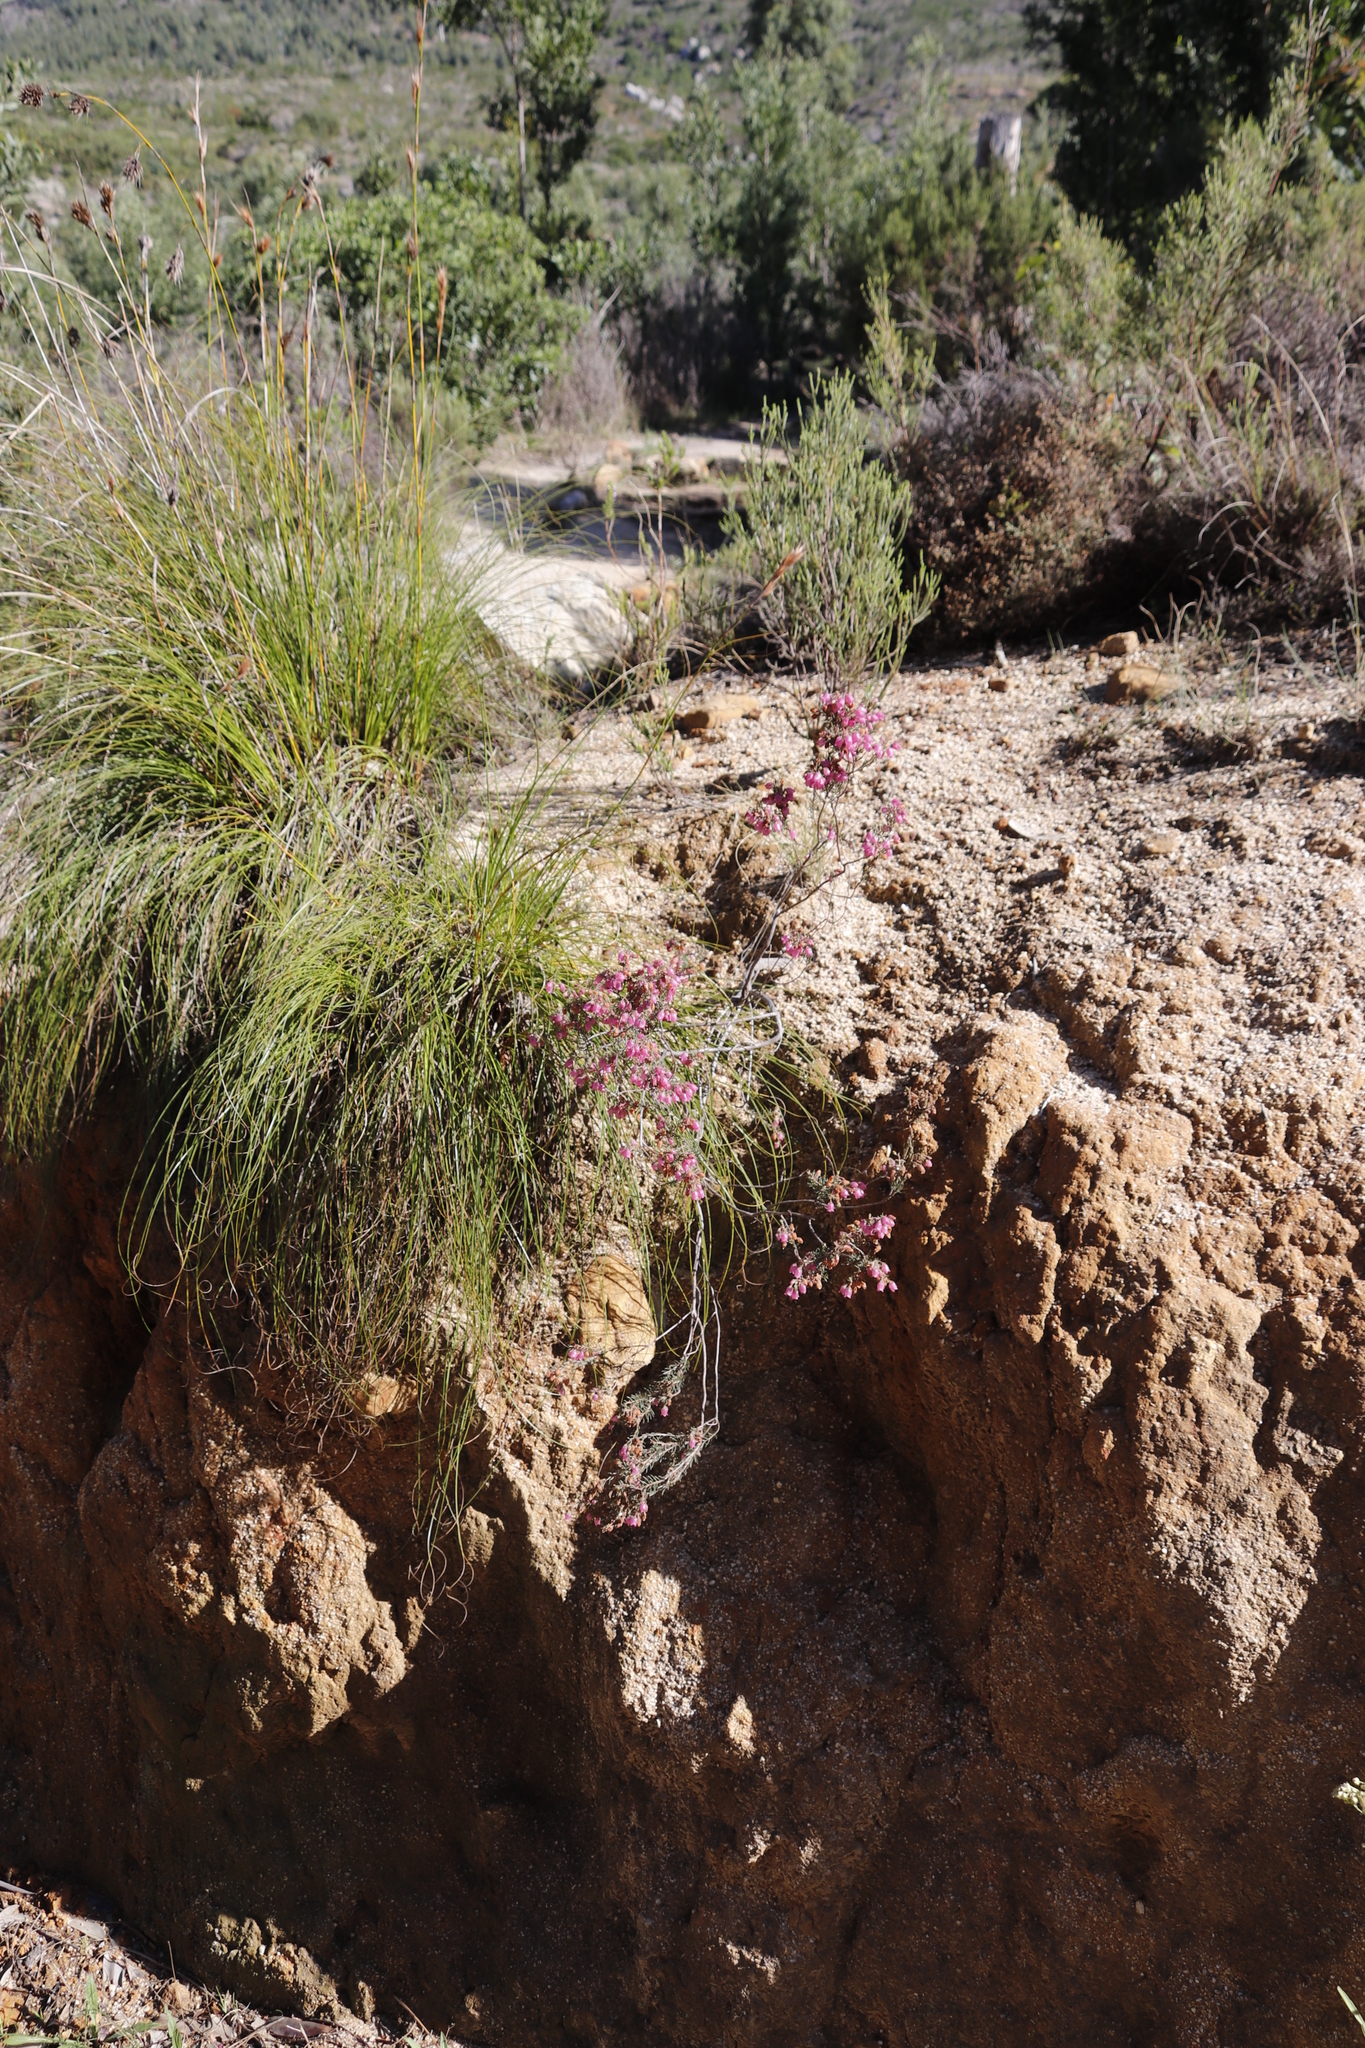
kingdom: Plantae
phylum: Tracheophyta
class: Magnoliopsida
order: Ericales
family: Ericaceae
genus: Erica
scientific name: Erica viscaria
